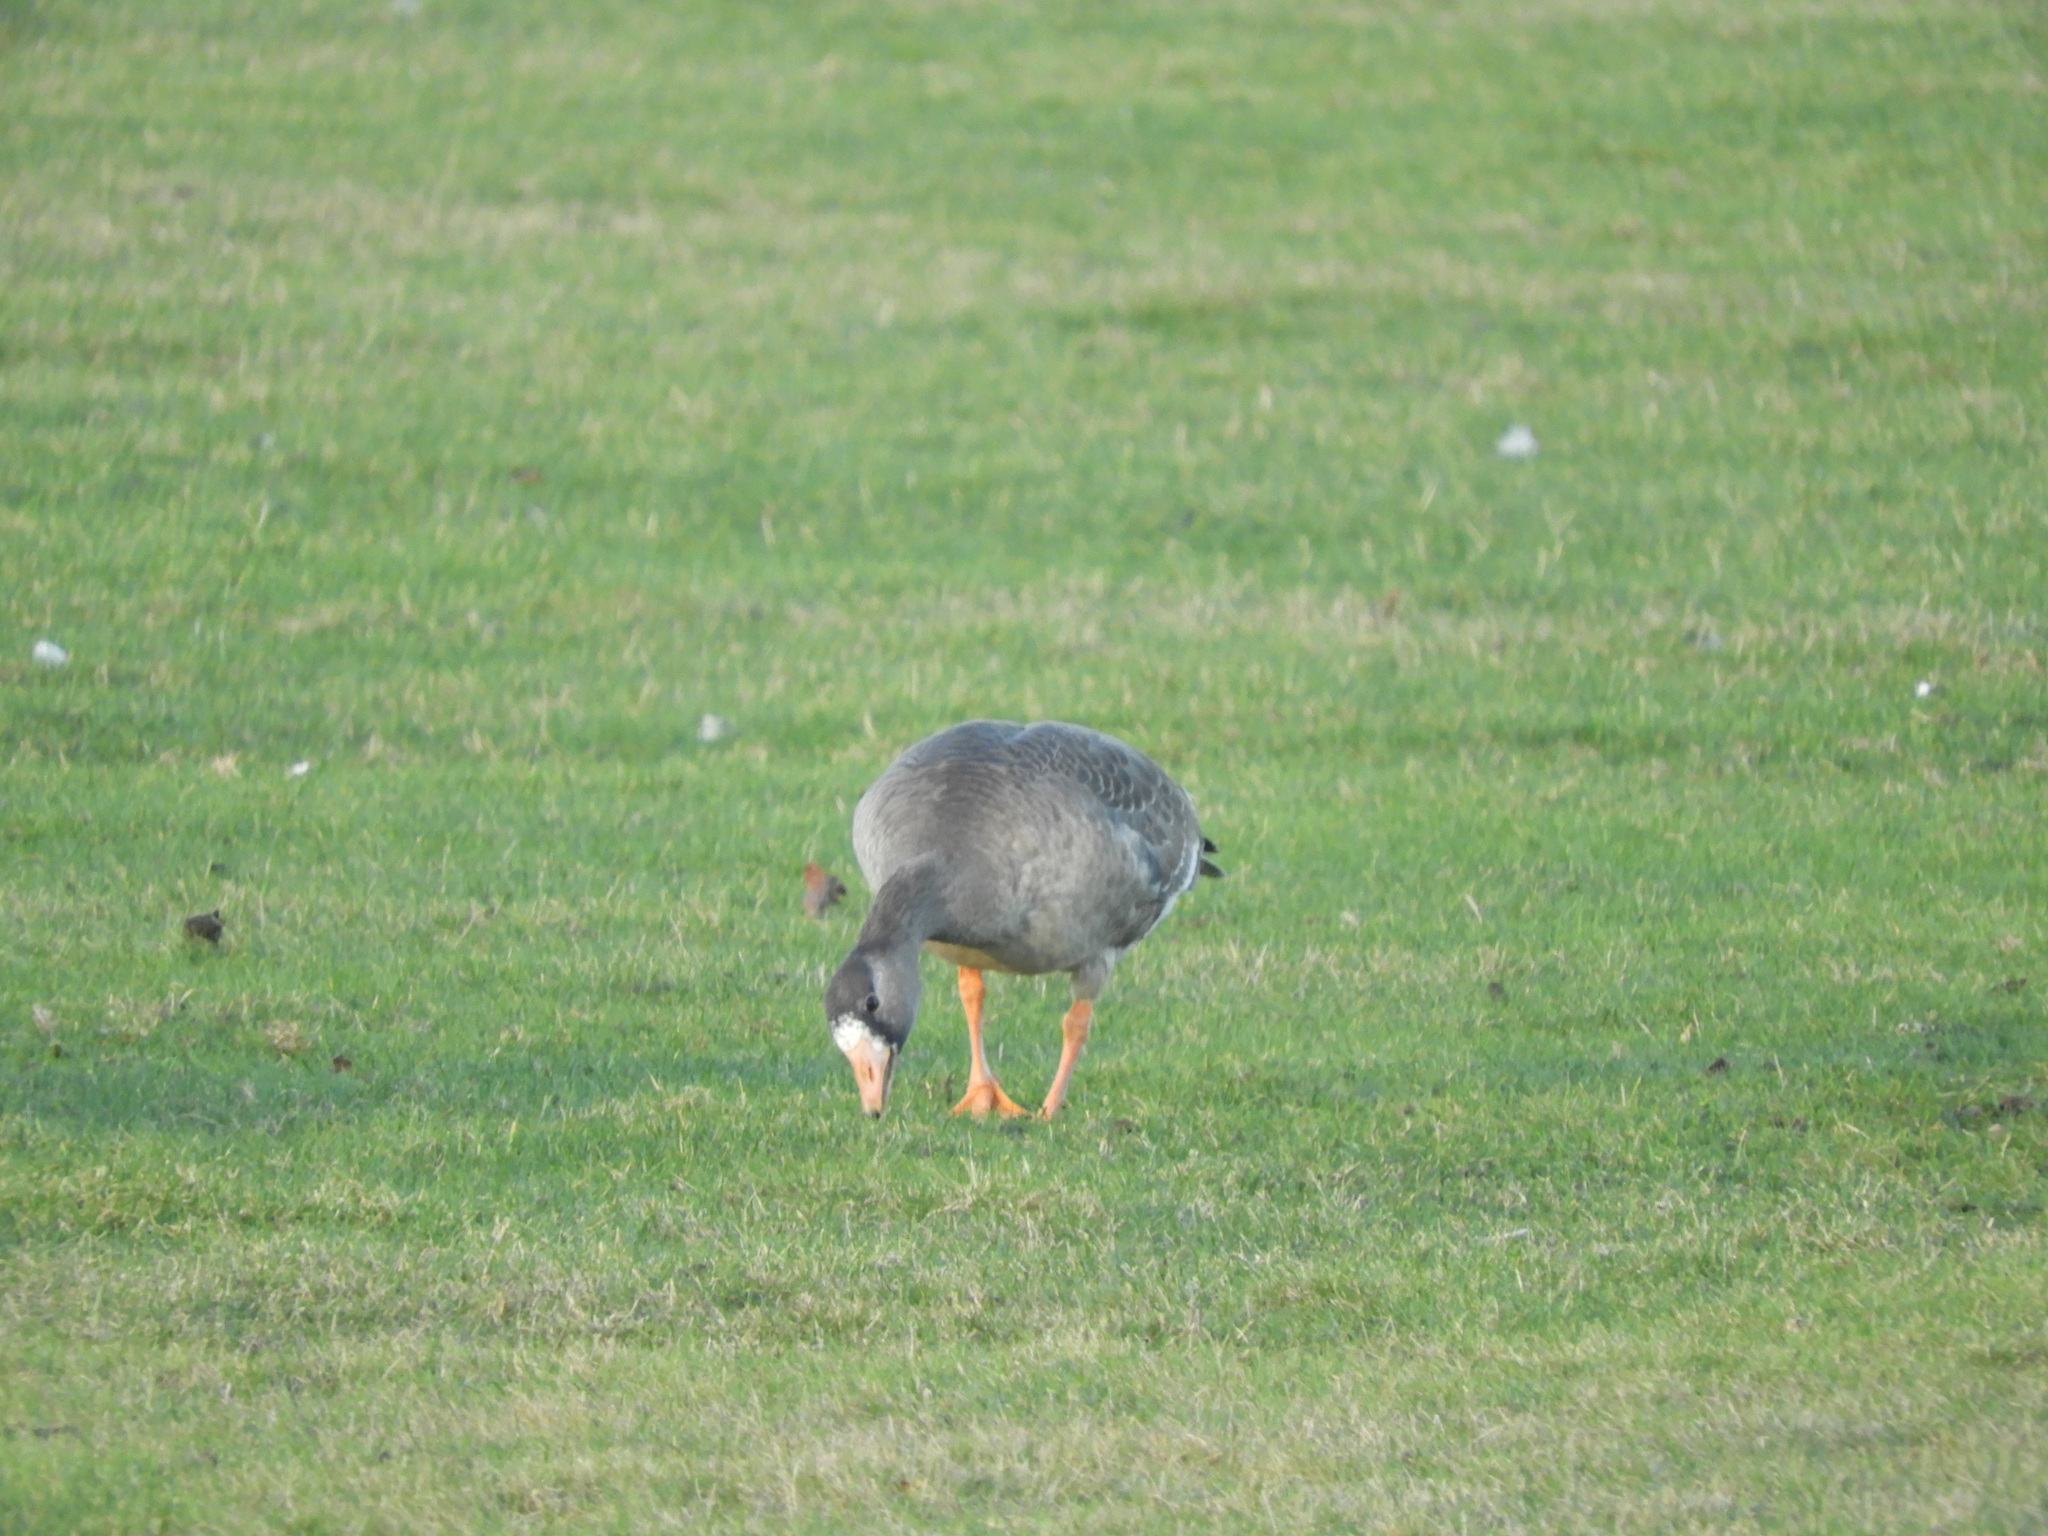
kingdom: Animalia
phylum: Chordata
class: Aves
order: Anseriformes
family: Anatidae
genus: Anser
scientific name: Anser albifrons
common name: Greater white-fronted goose
